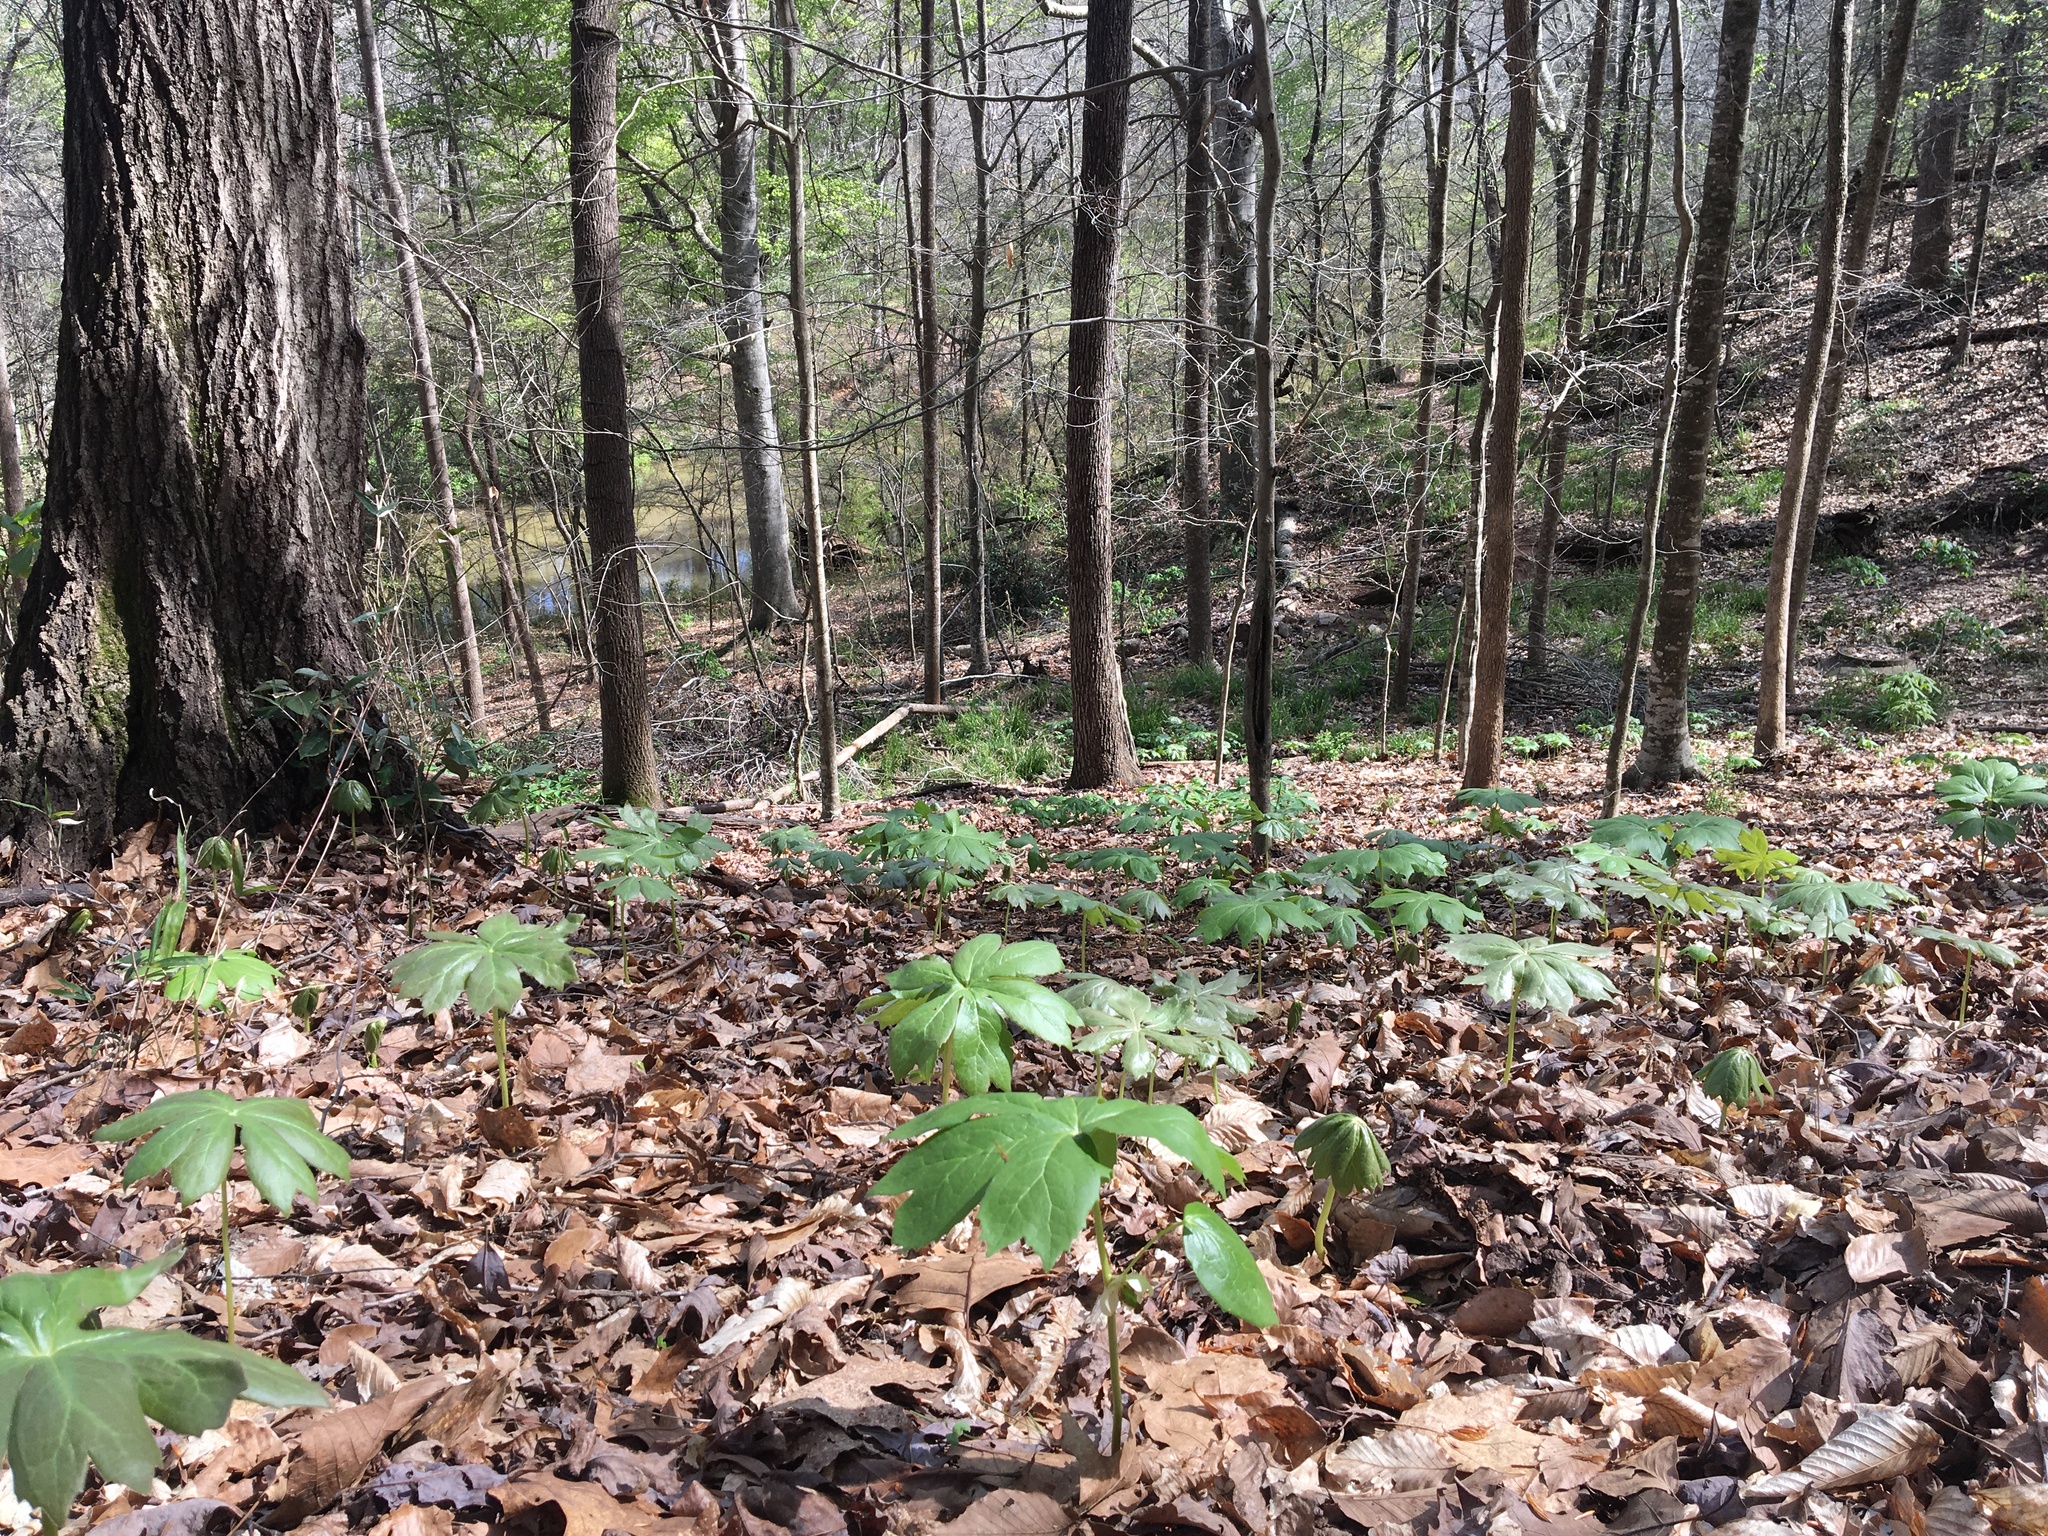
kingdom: Plantae
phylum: Tracheophyta
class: Magnoliopsida
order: Ranunculales
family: Berberidaceae
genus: Podophyllum
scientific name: Podophyllum peltatum
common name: Wild mandrake
